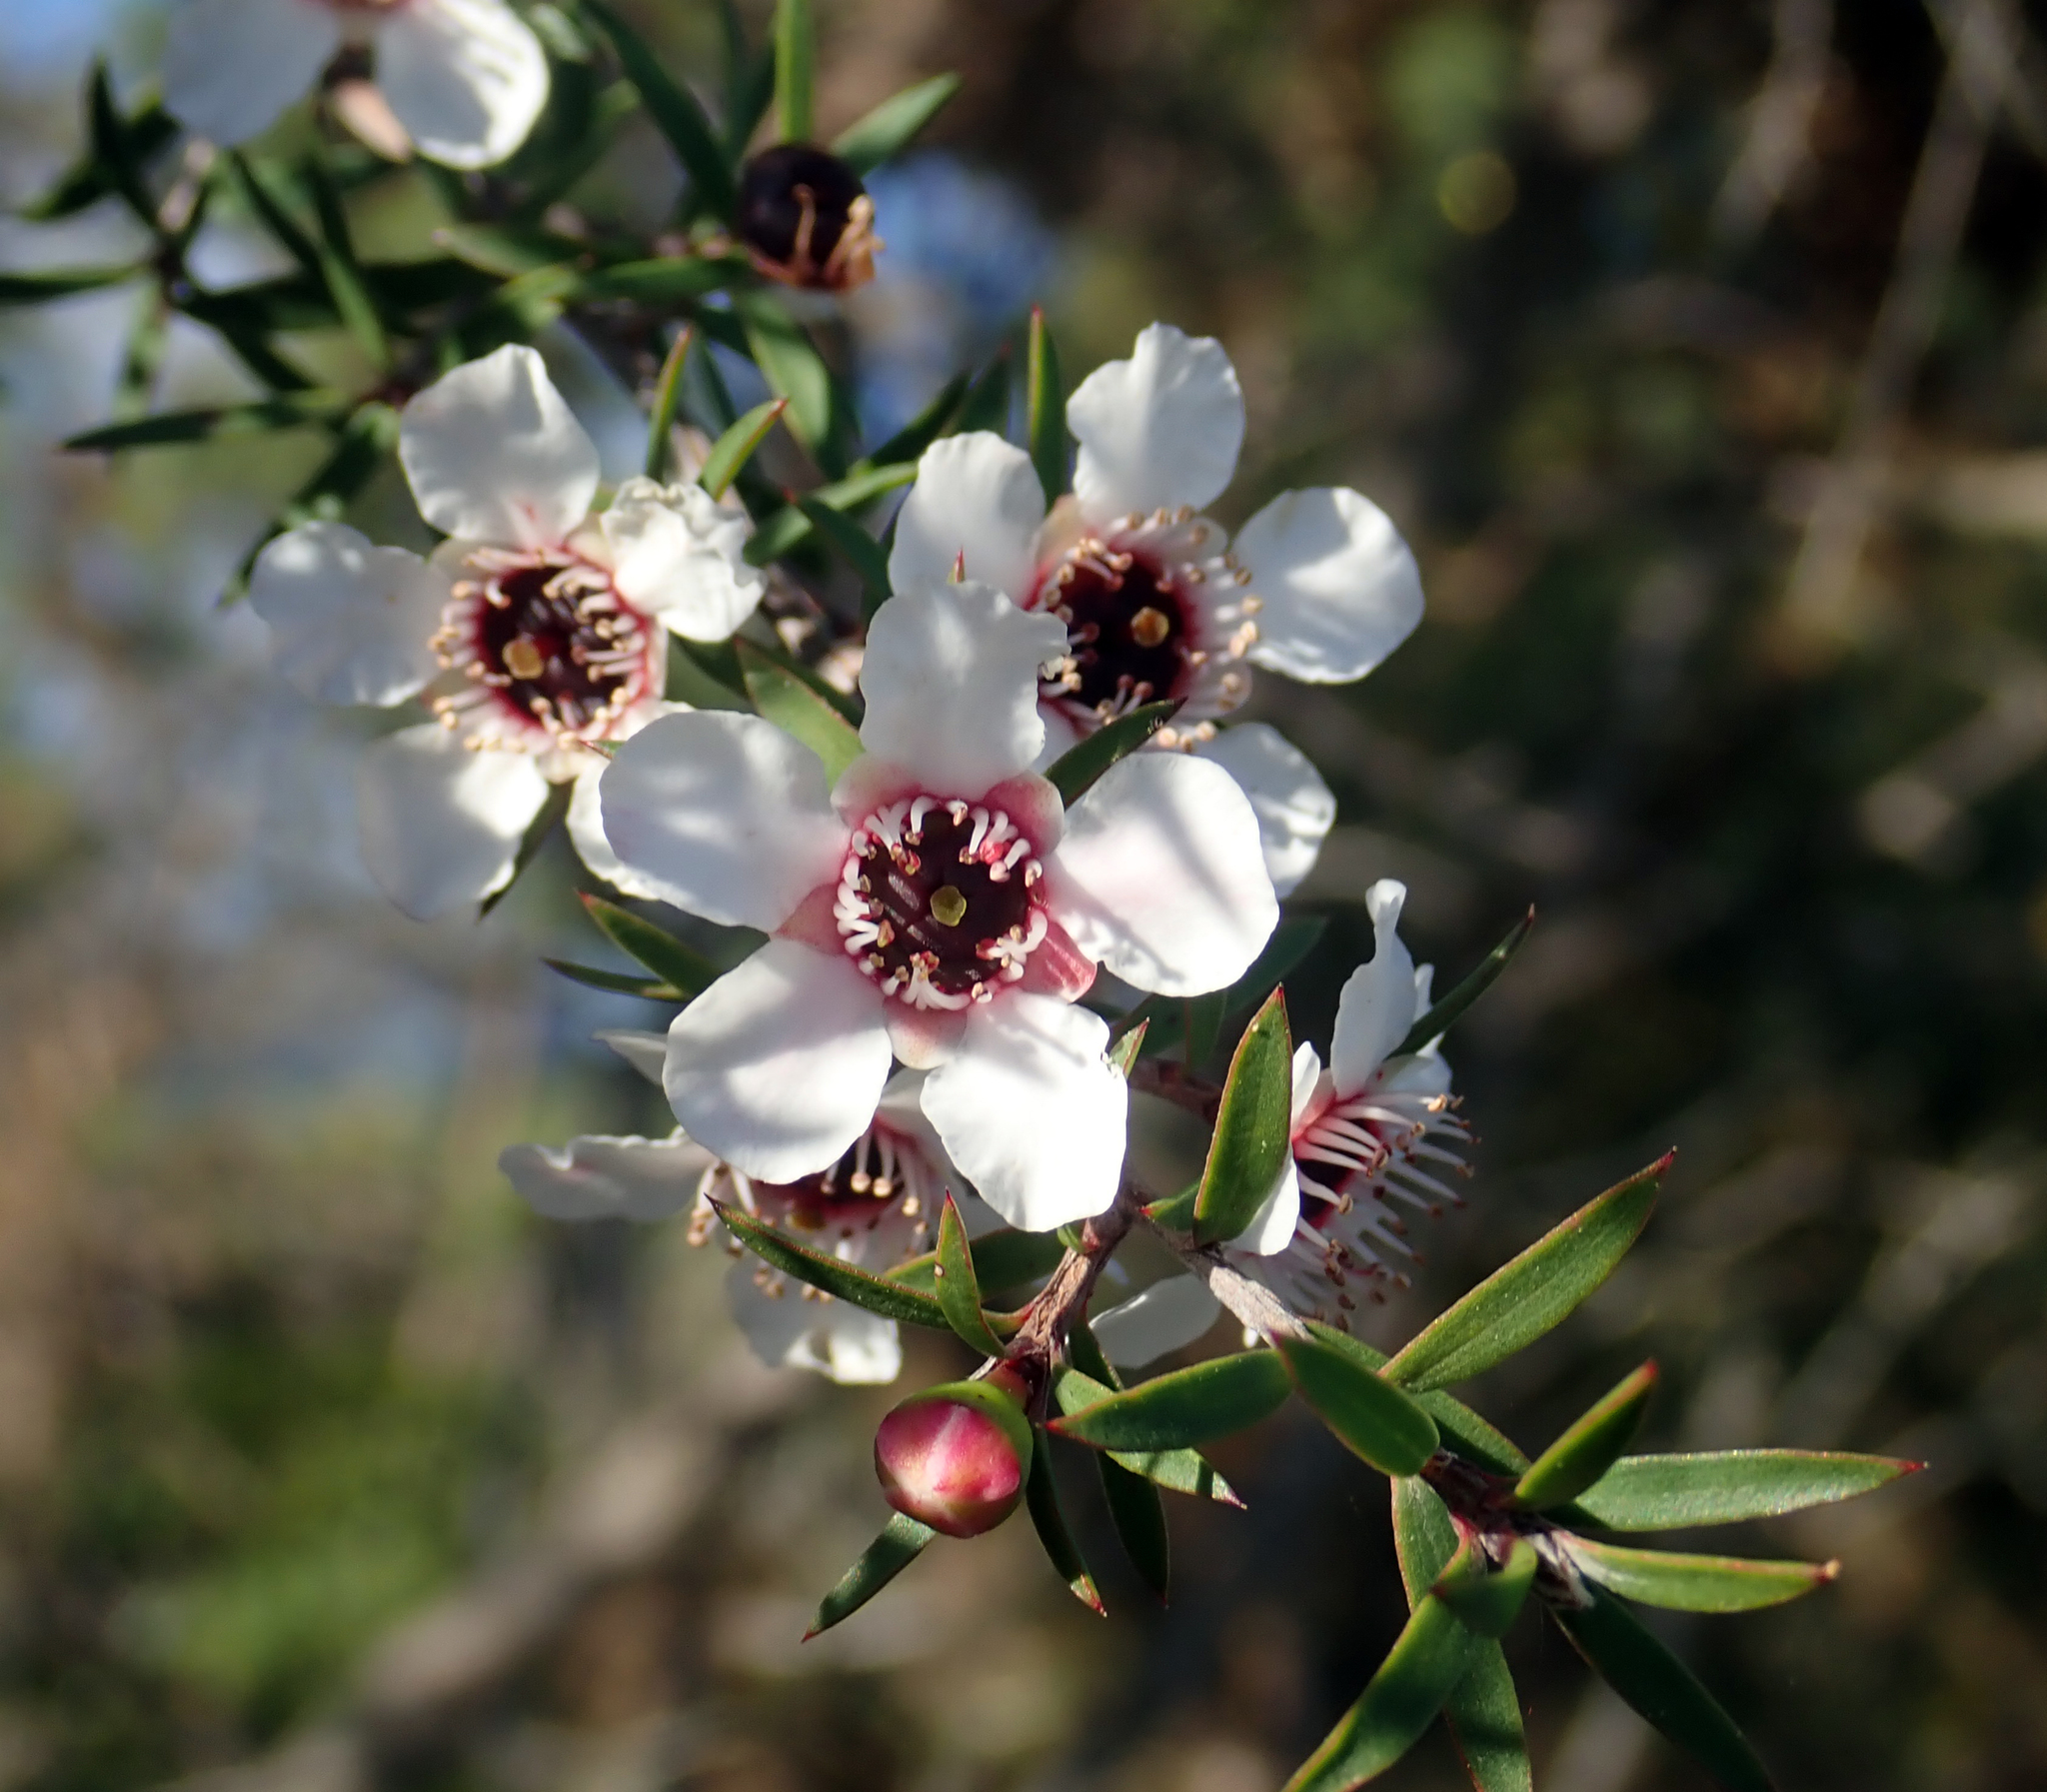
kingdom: Plantae
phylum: Tracheophyta
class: Magnoliopsida
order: Myrtales
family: Myrtaceae
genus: Leptospermum
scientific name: Leptospermum scoparium
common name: Broom tea-tree
